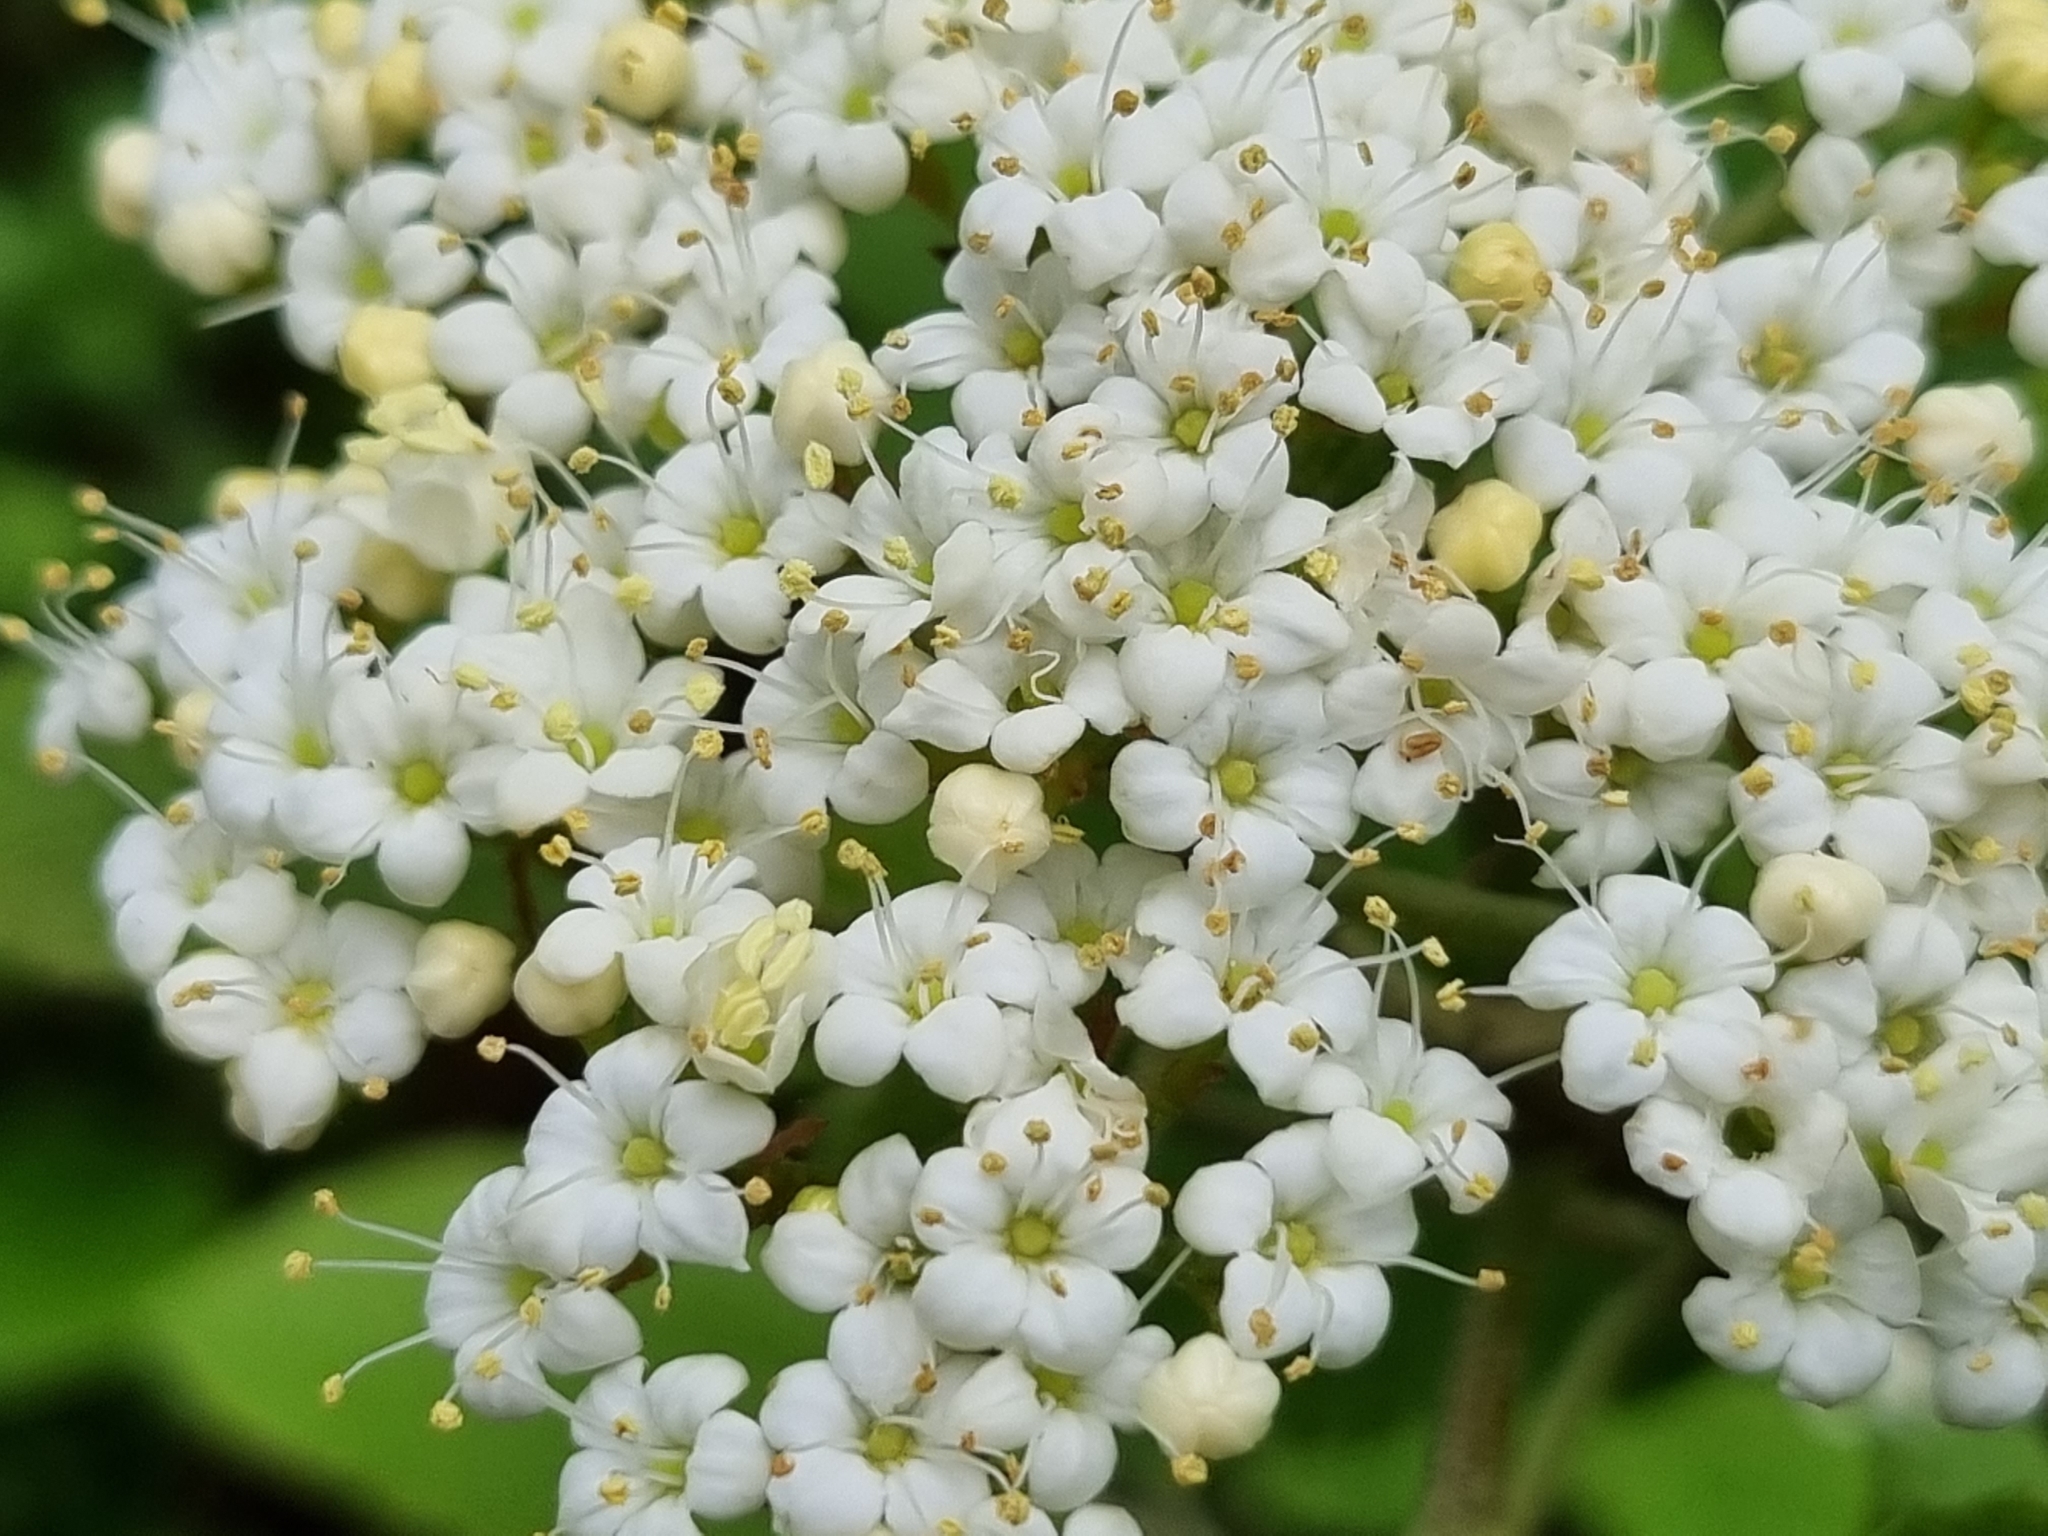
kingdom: Plantae
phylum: Tracheophyta
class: Magnoliopsida
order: Dipsacales
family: Viburnaceae
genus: Viburnum
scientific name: Viburnum lantana
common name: Wayfaring tree
